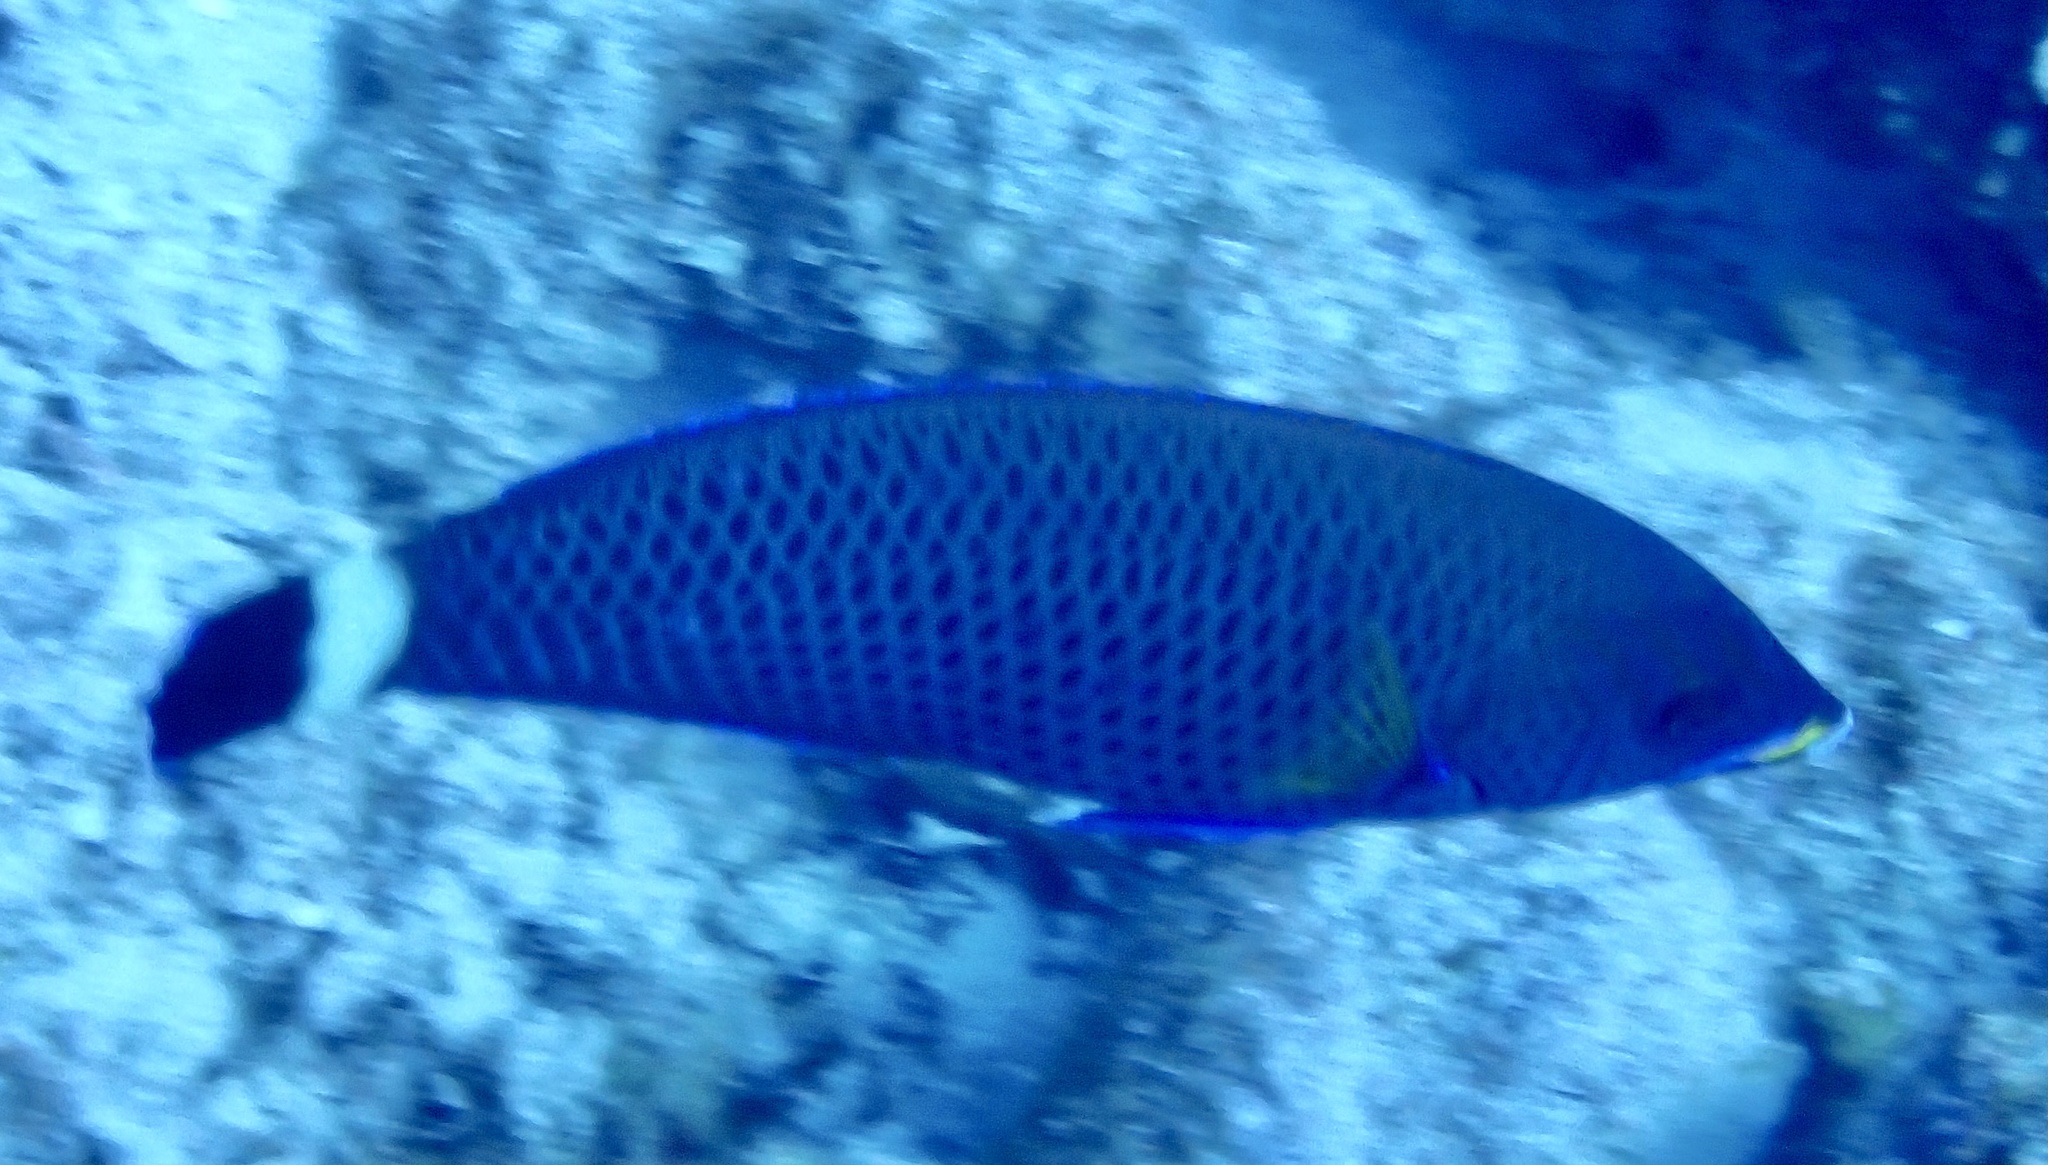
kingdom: Animalia
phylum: Chordata
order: Perciformes
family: Labridae
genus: Pseudodax
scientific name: Pseudodax moluccanus
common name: Chiseltooth wrasse
